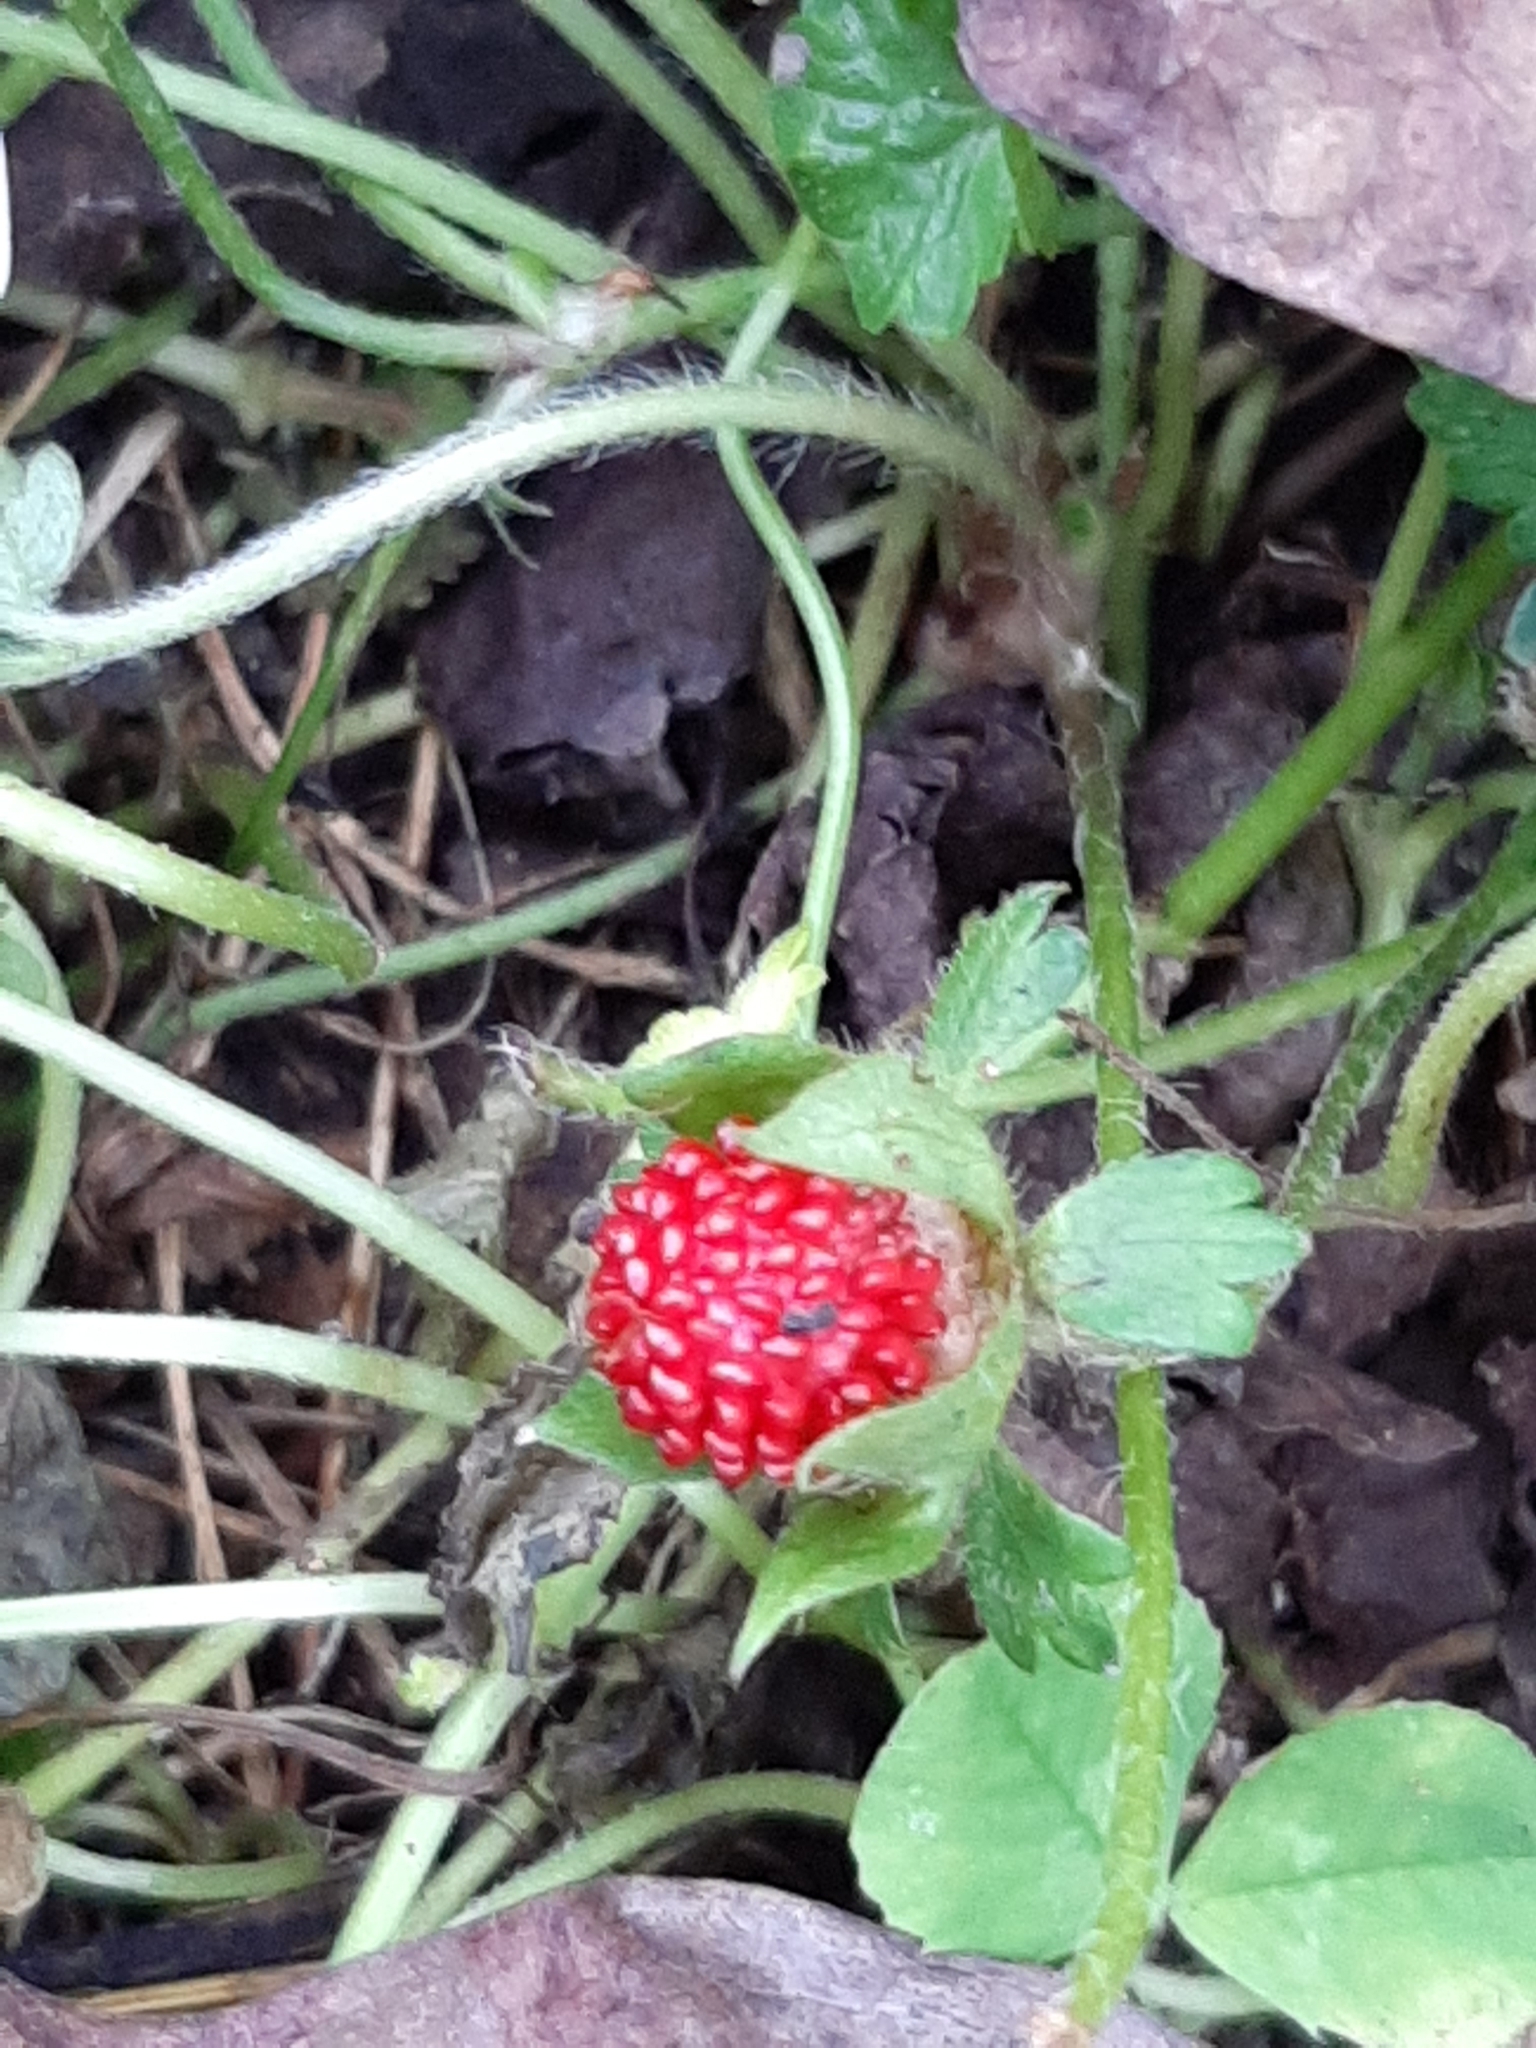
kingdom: Plantae
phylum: Tracheophyta
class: Magnoliopsida
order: Rosales
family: Rosaceae
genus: Potentilla
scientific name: Potentilla indica
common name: Yellow-flowered strawberry
